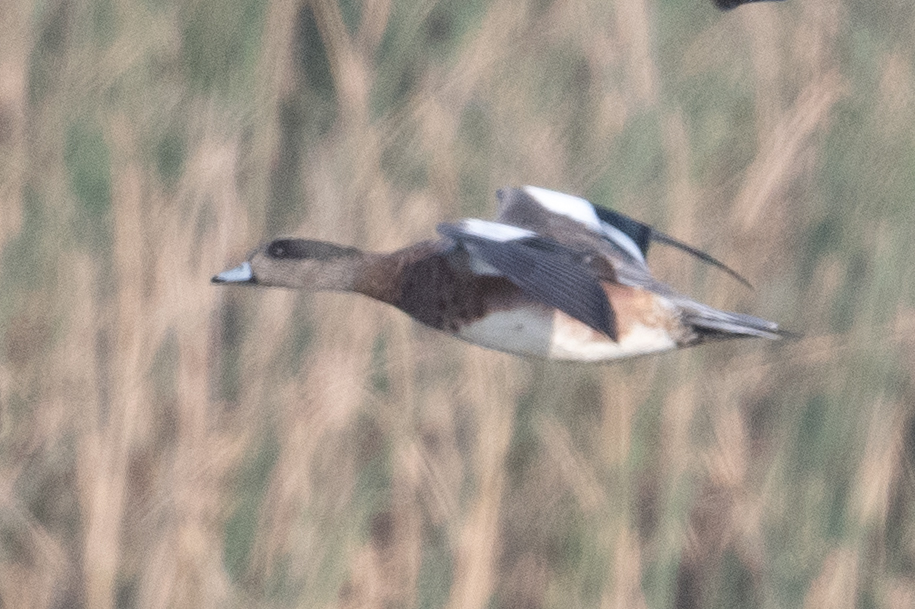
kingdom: Animalia
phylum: Chordata
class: Aves
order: Anseriformes
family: Anatidae
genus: Mareca
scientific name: Mareca americana
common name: American wigeon
